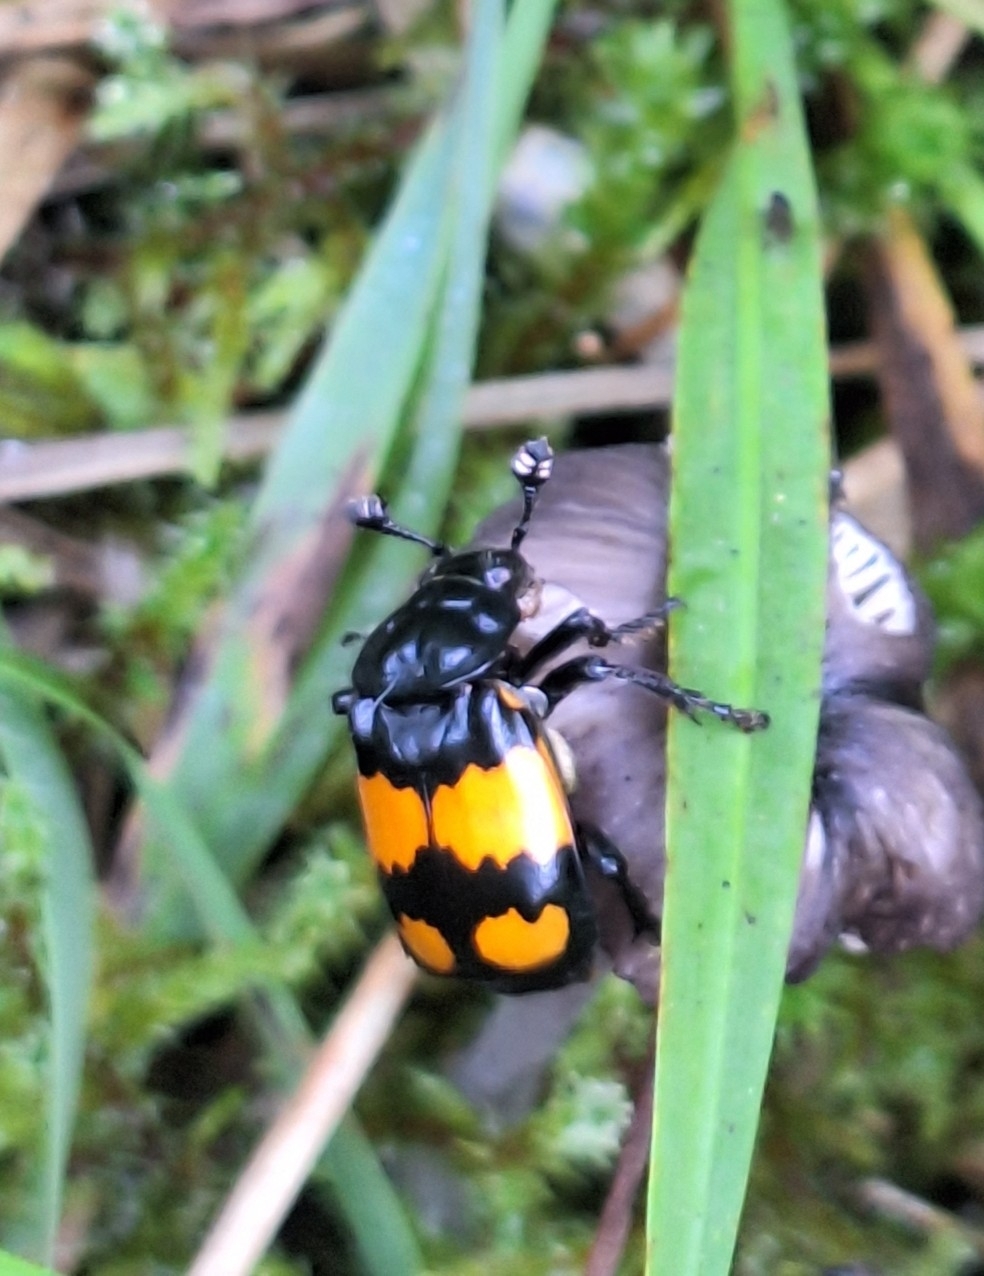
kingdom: Animalia
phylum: Arthropoda
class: Insecta
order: Coleoptera
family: Staphylinidae
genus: Nicrophorus
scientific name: Nicrophorus vespilloides
